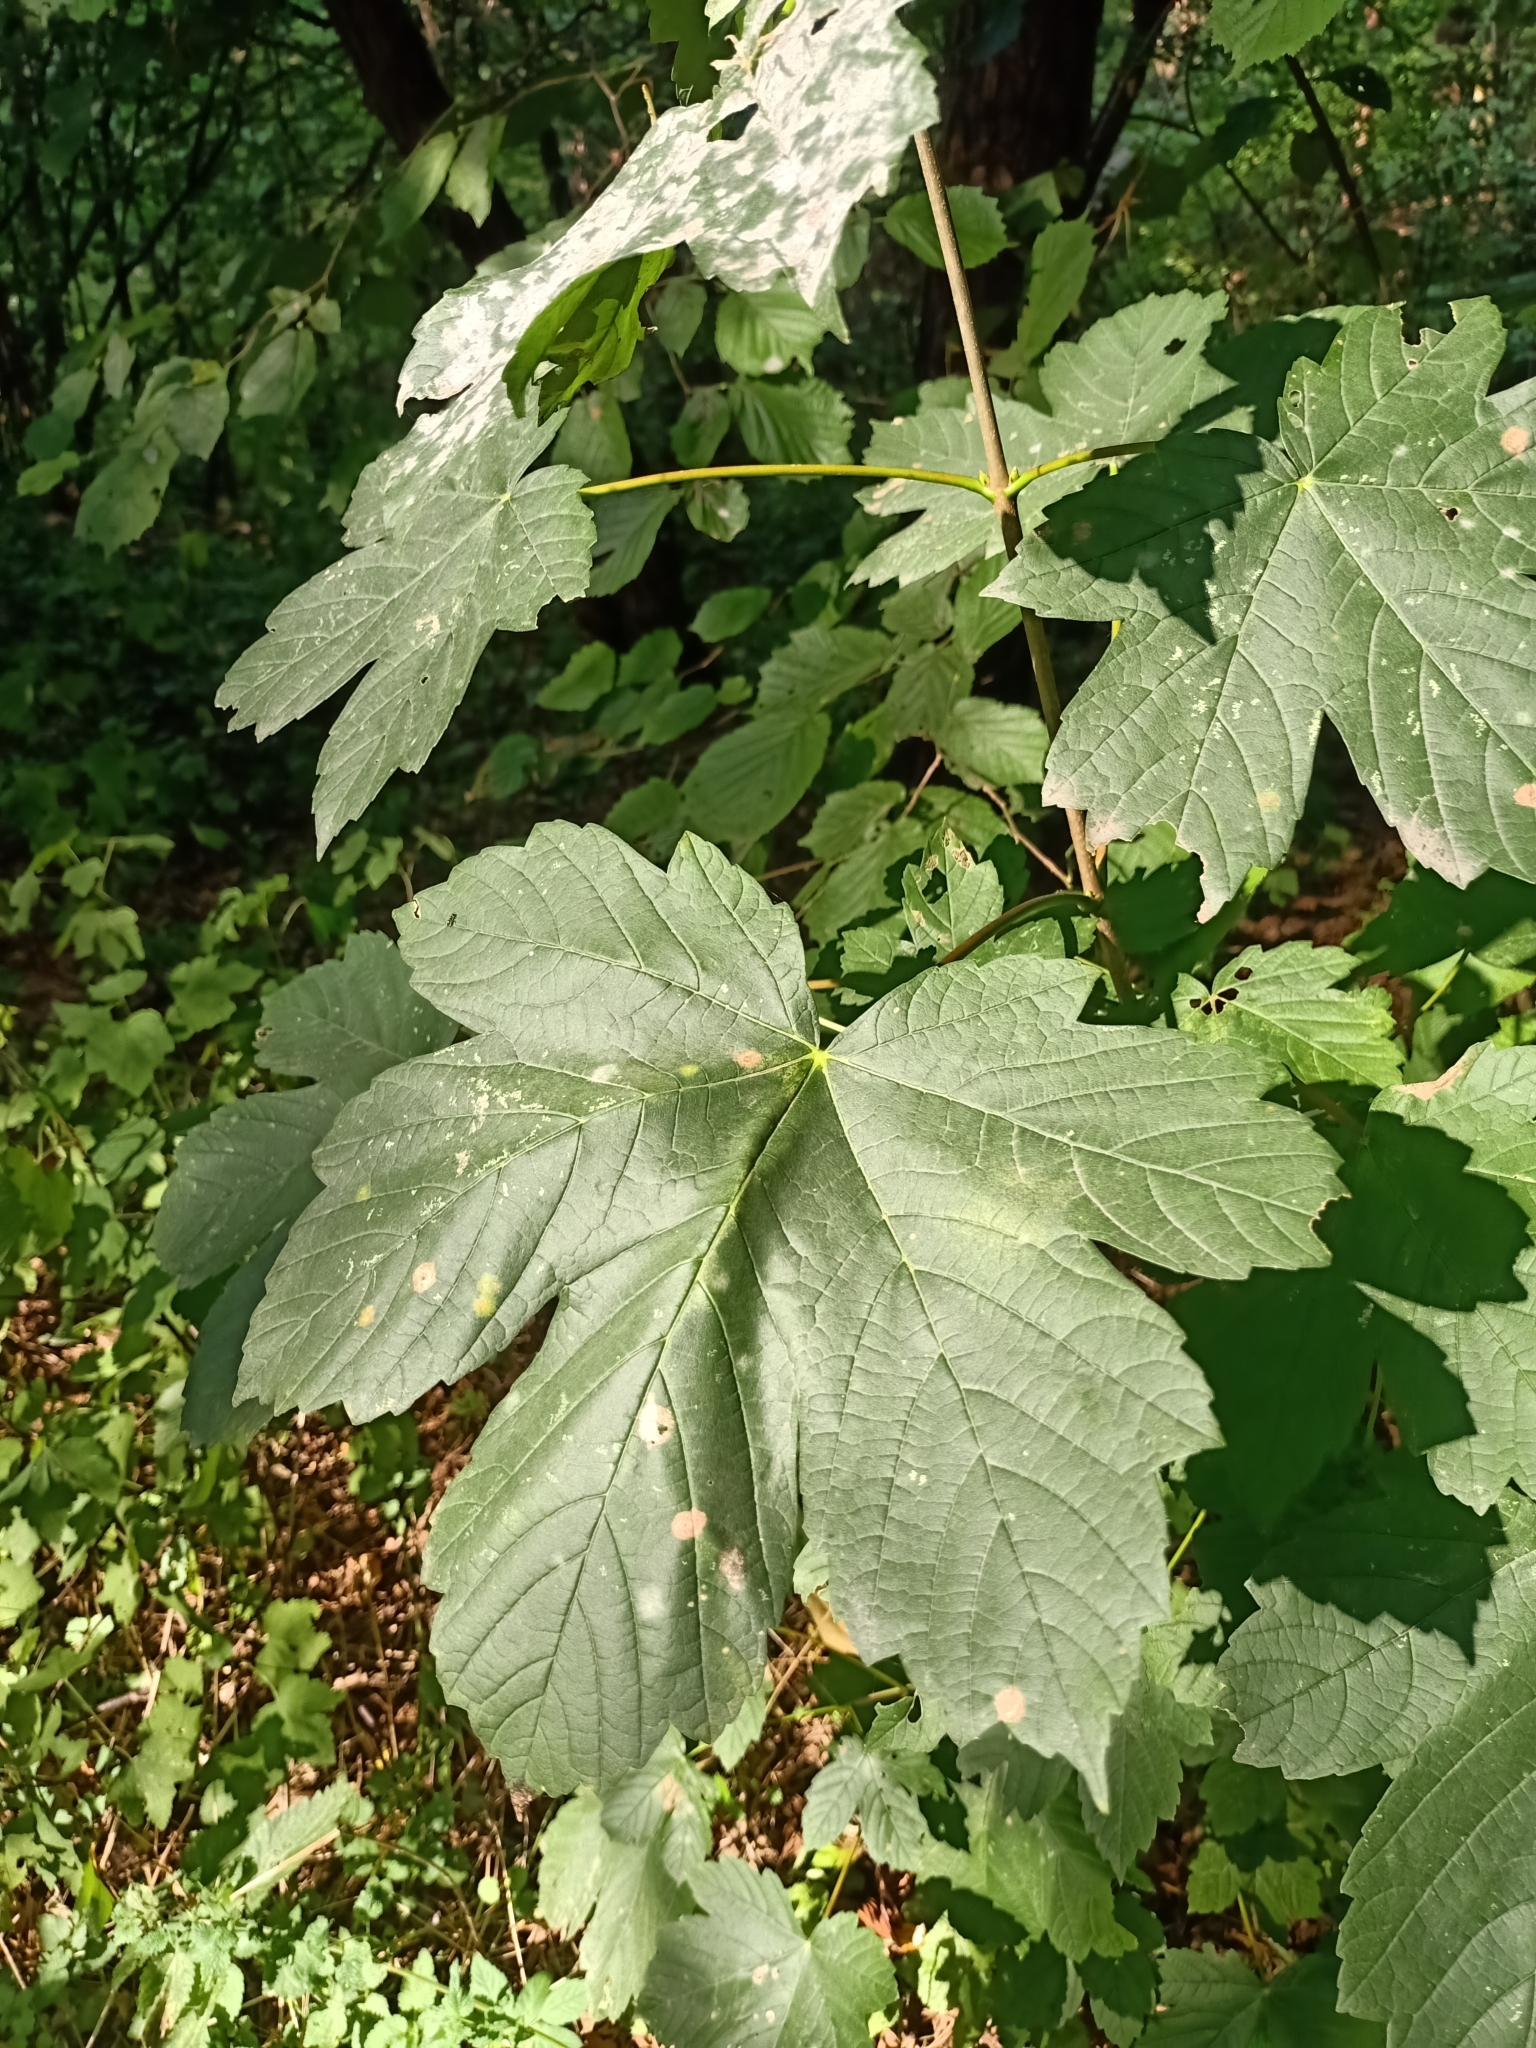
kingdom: Plantae
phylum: Tracheophyta
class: Magnoliopsida
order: Sapindales
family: Sapindaceae
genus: Acer
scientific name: Acer pseudoplatanus
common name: Sycamore
